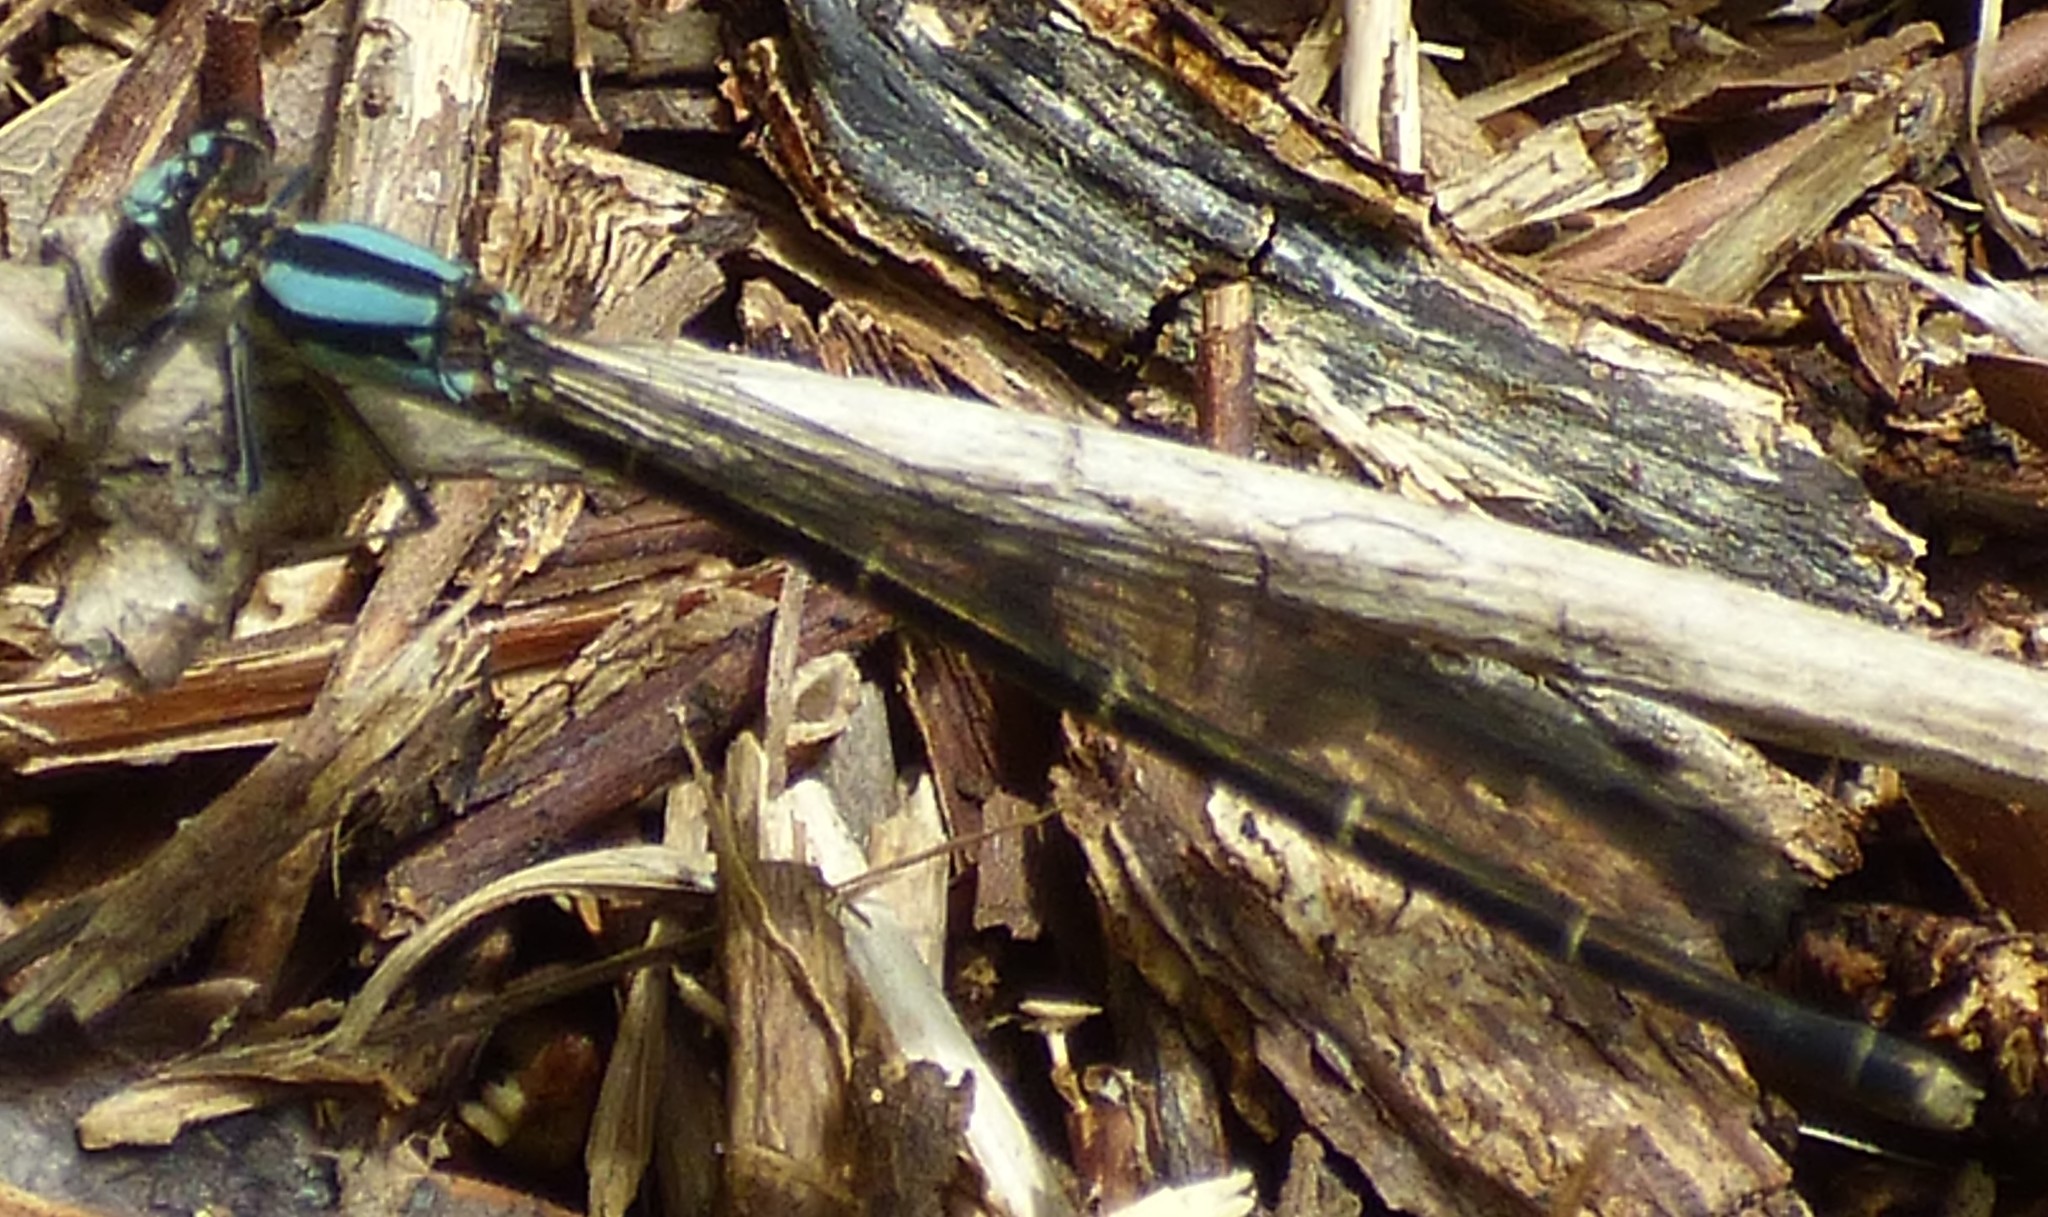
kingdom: Animalia
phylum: Arthropoda
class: Insecta
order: Odonata
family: Coenagrionidae
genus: Argia
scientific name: Argia tibialis
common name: Blue-tipped dancer
